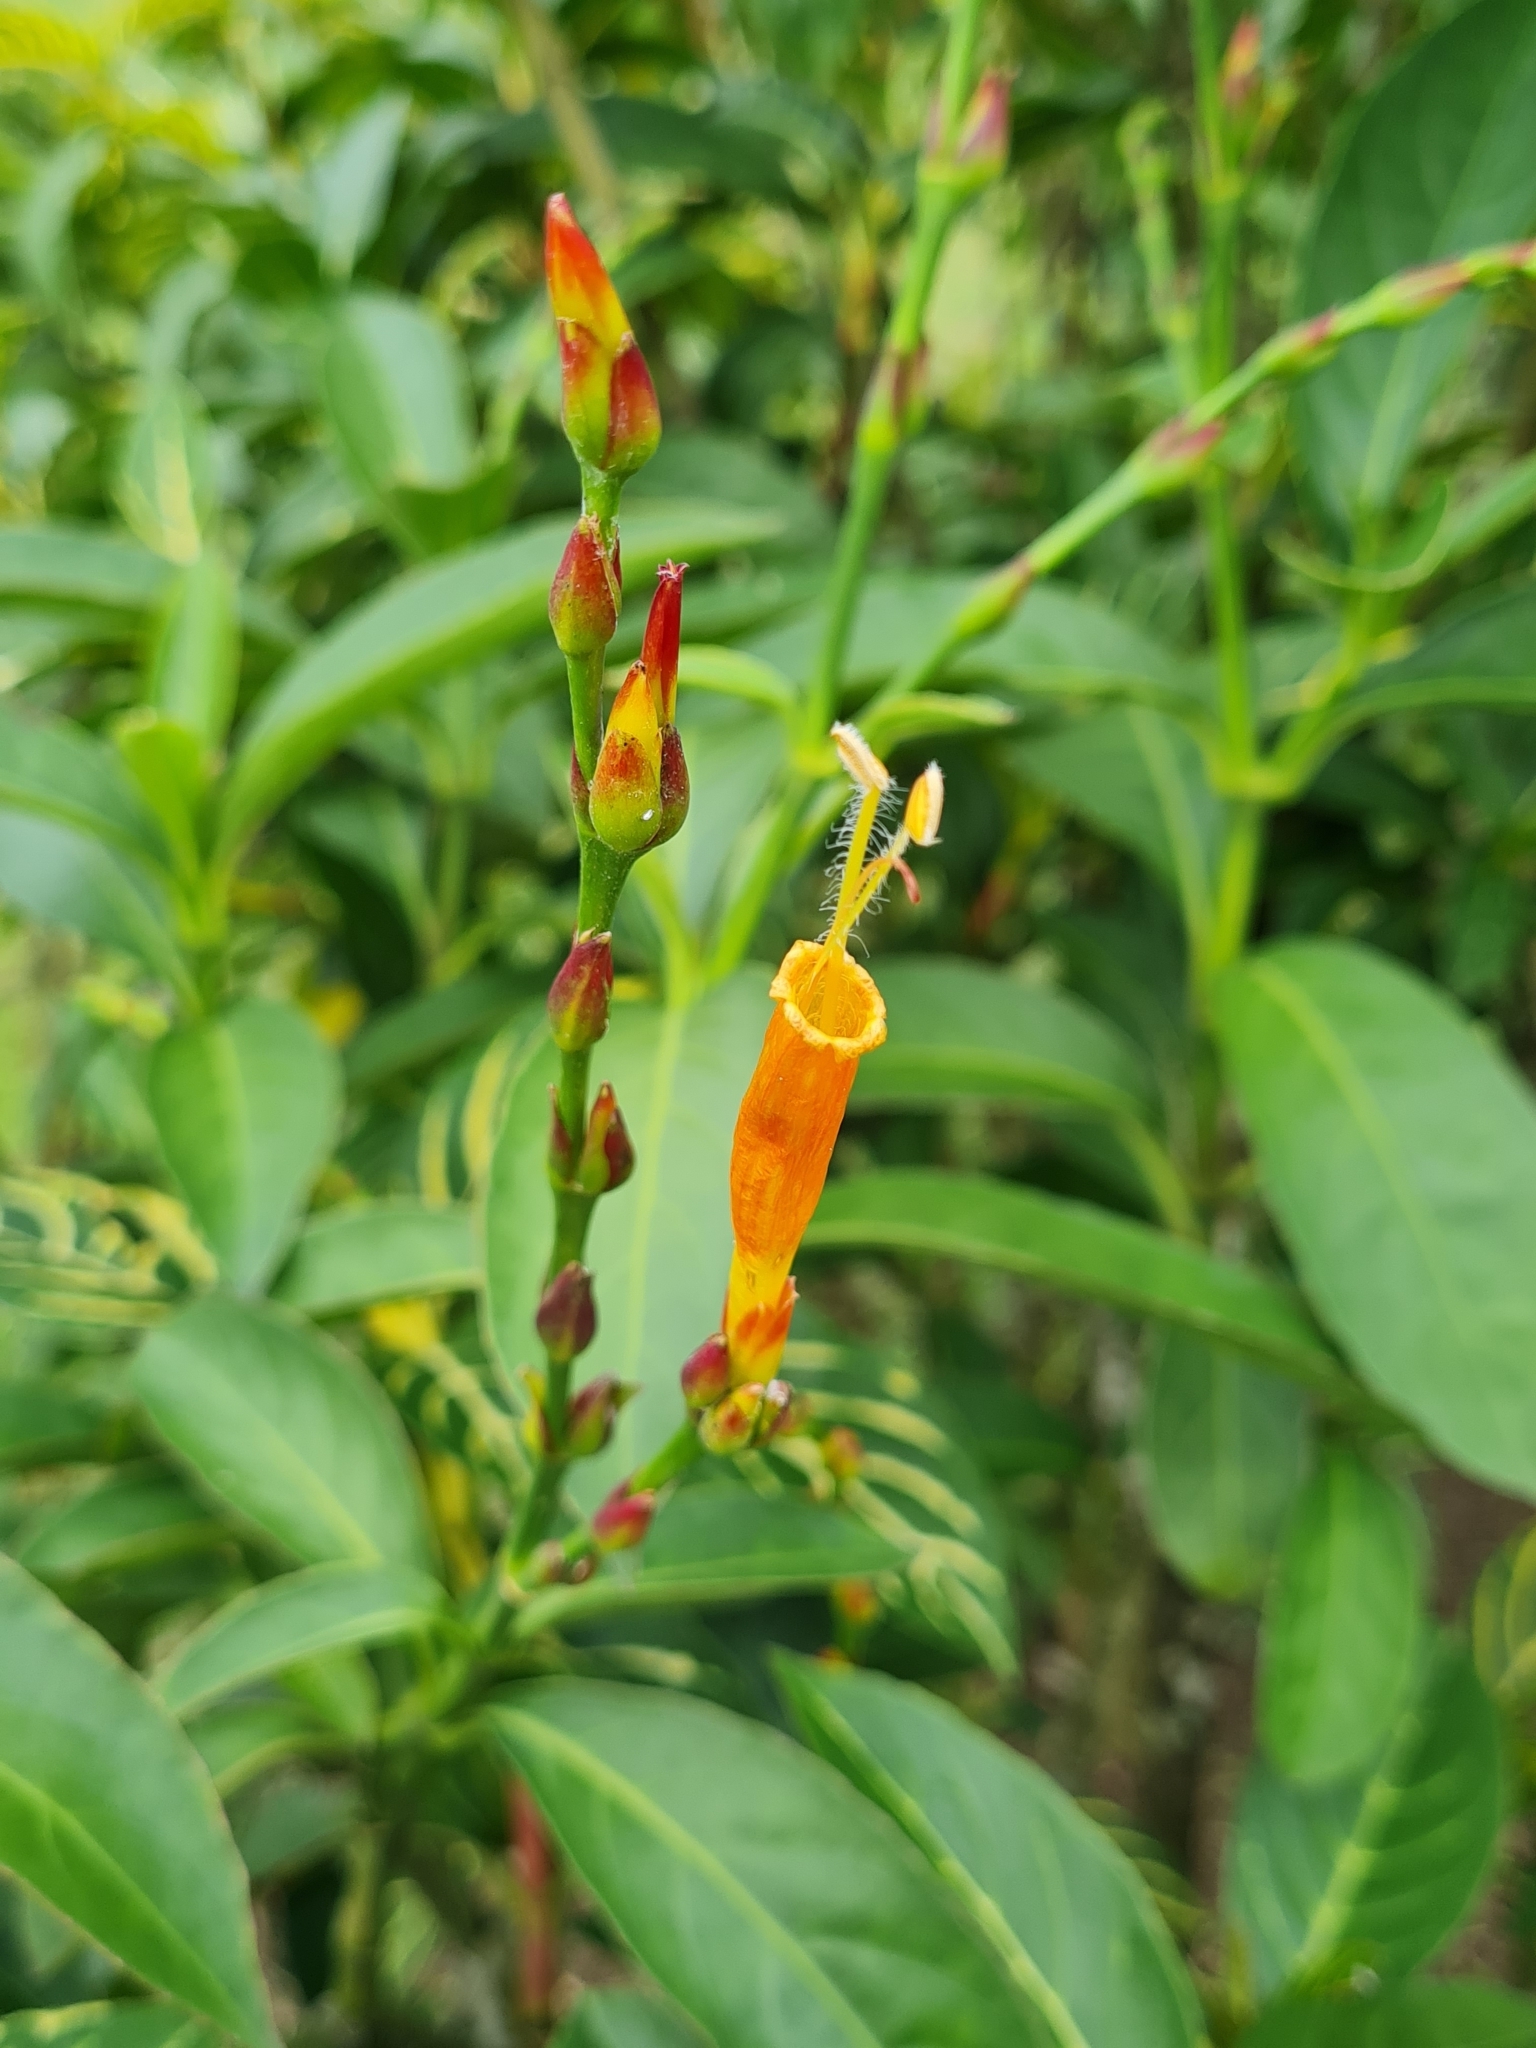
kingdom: Plantae
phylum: Tracheophyta
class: Magnoliopsida
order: Lamiales
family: Acanthaceae
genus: Sanchezia
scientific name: Sanchezia tigrina
